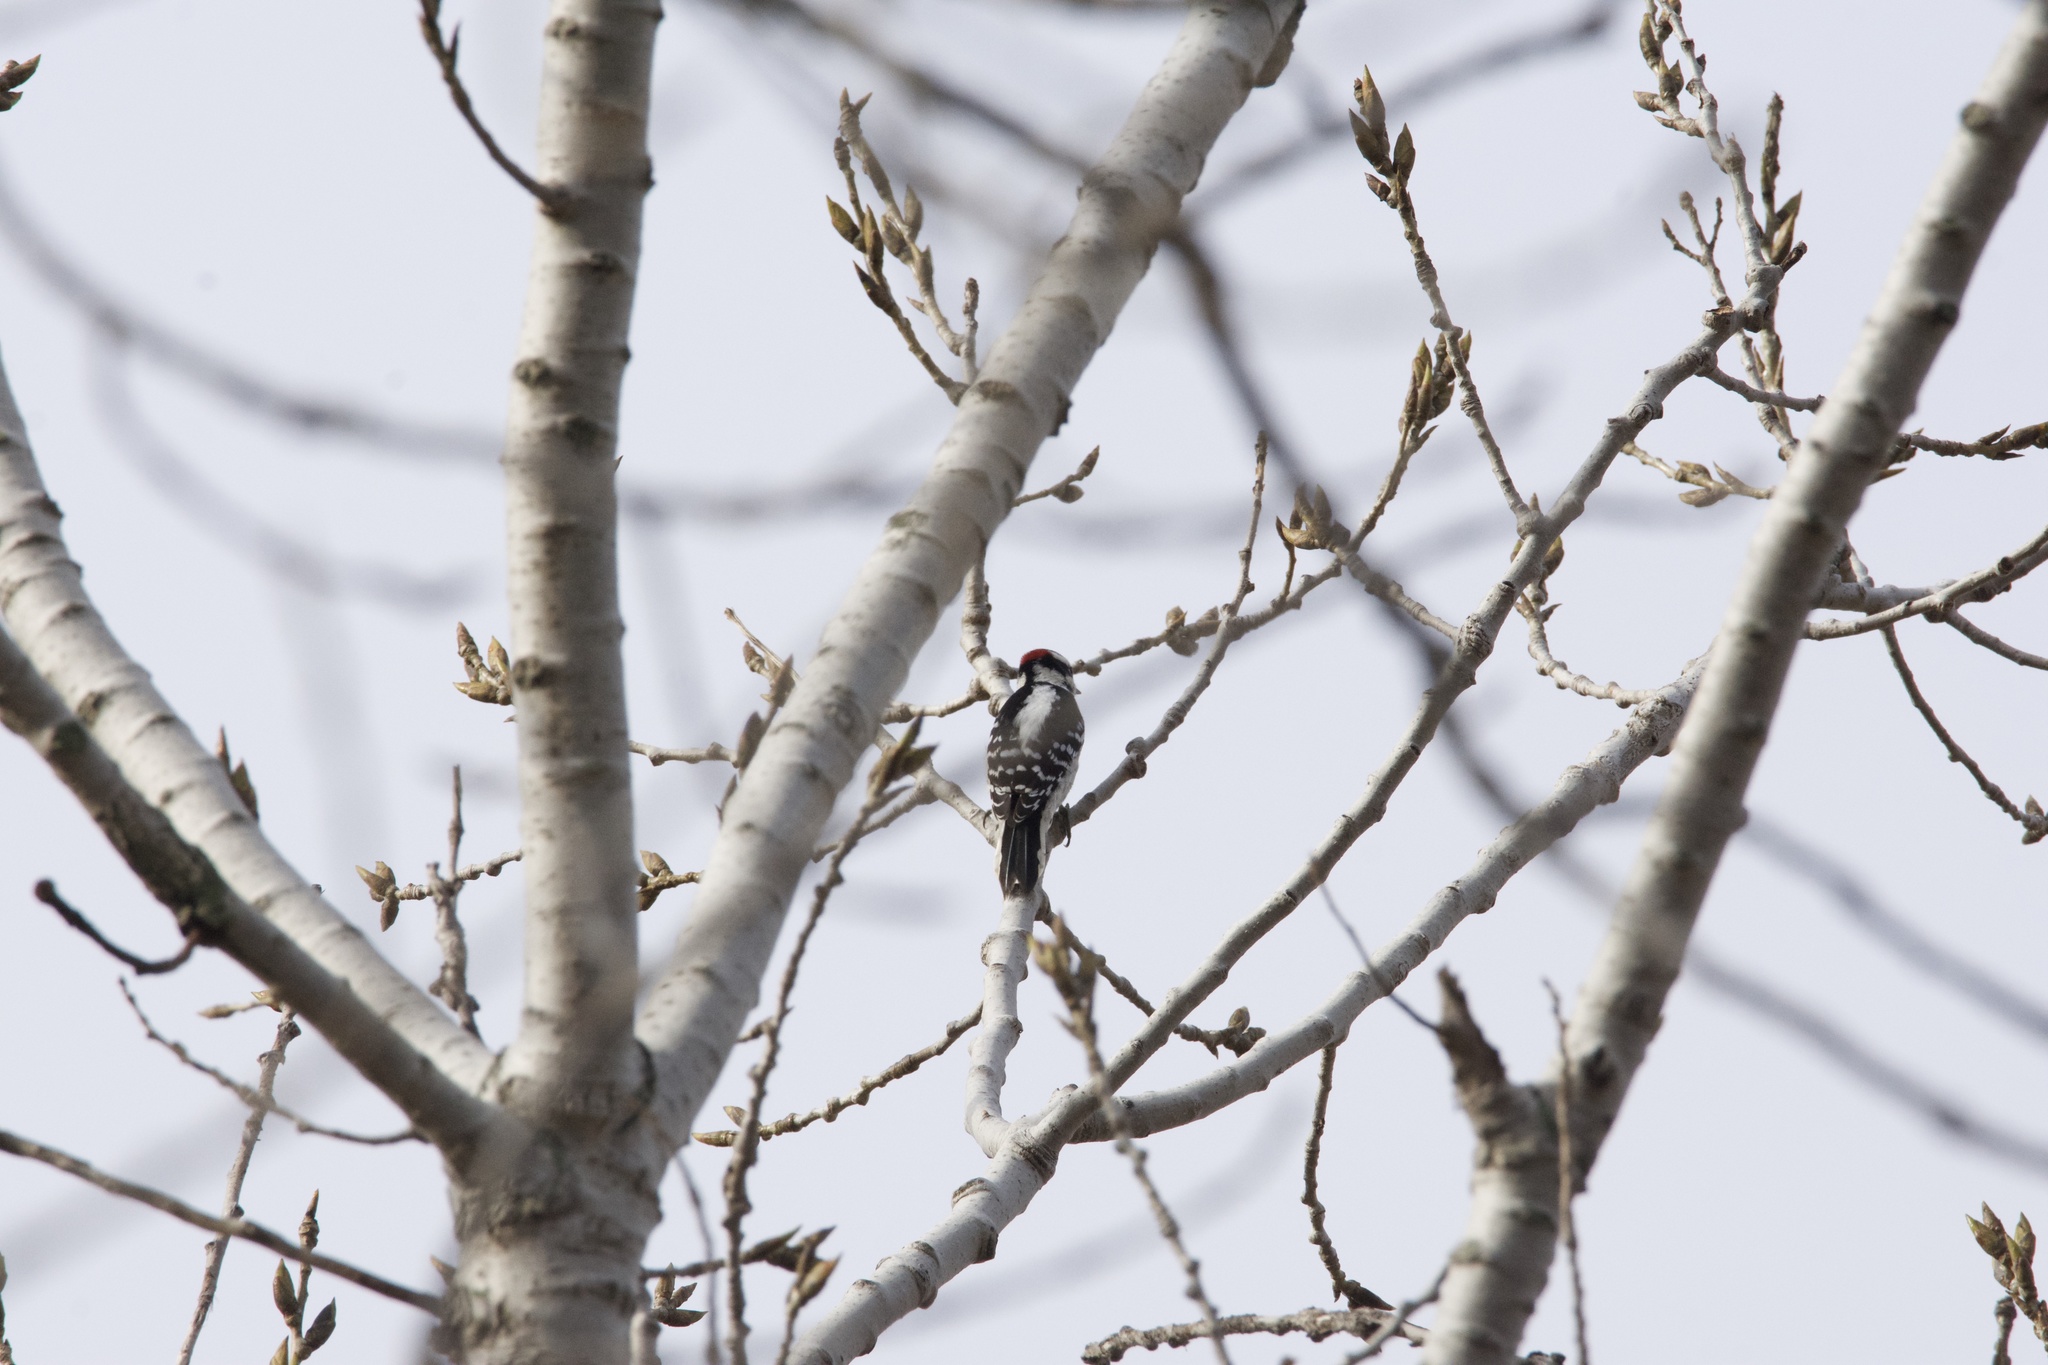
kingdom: Animalia
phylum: Chordata
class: Aves
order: Piciformes
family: Picidae
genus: Dryobates
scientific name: Dryobates pubescens
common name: Downy woodpecker
